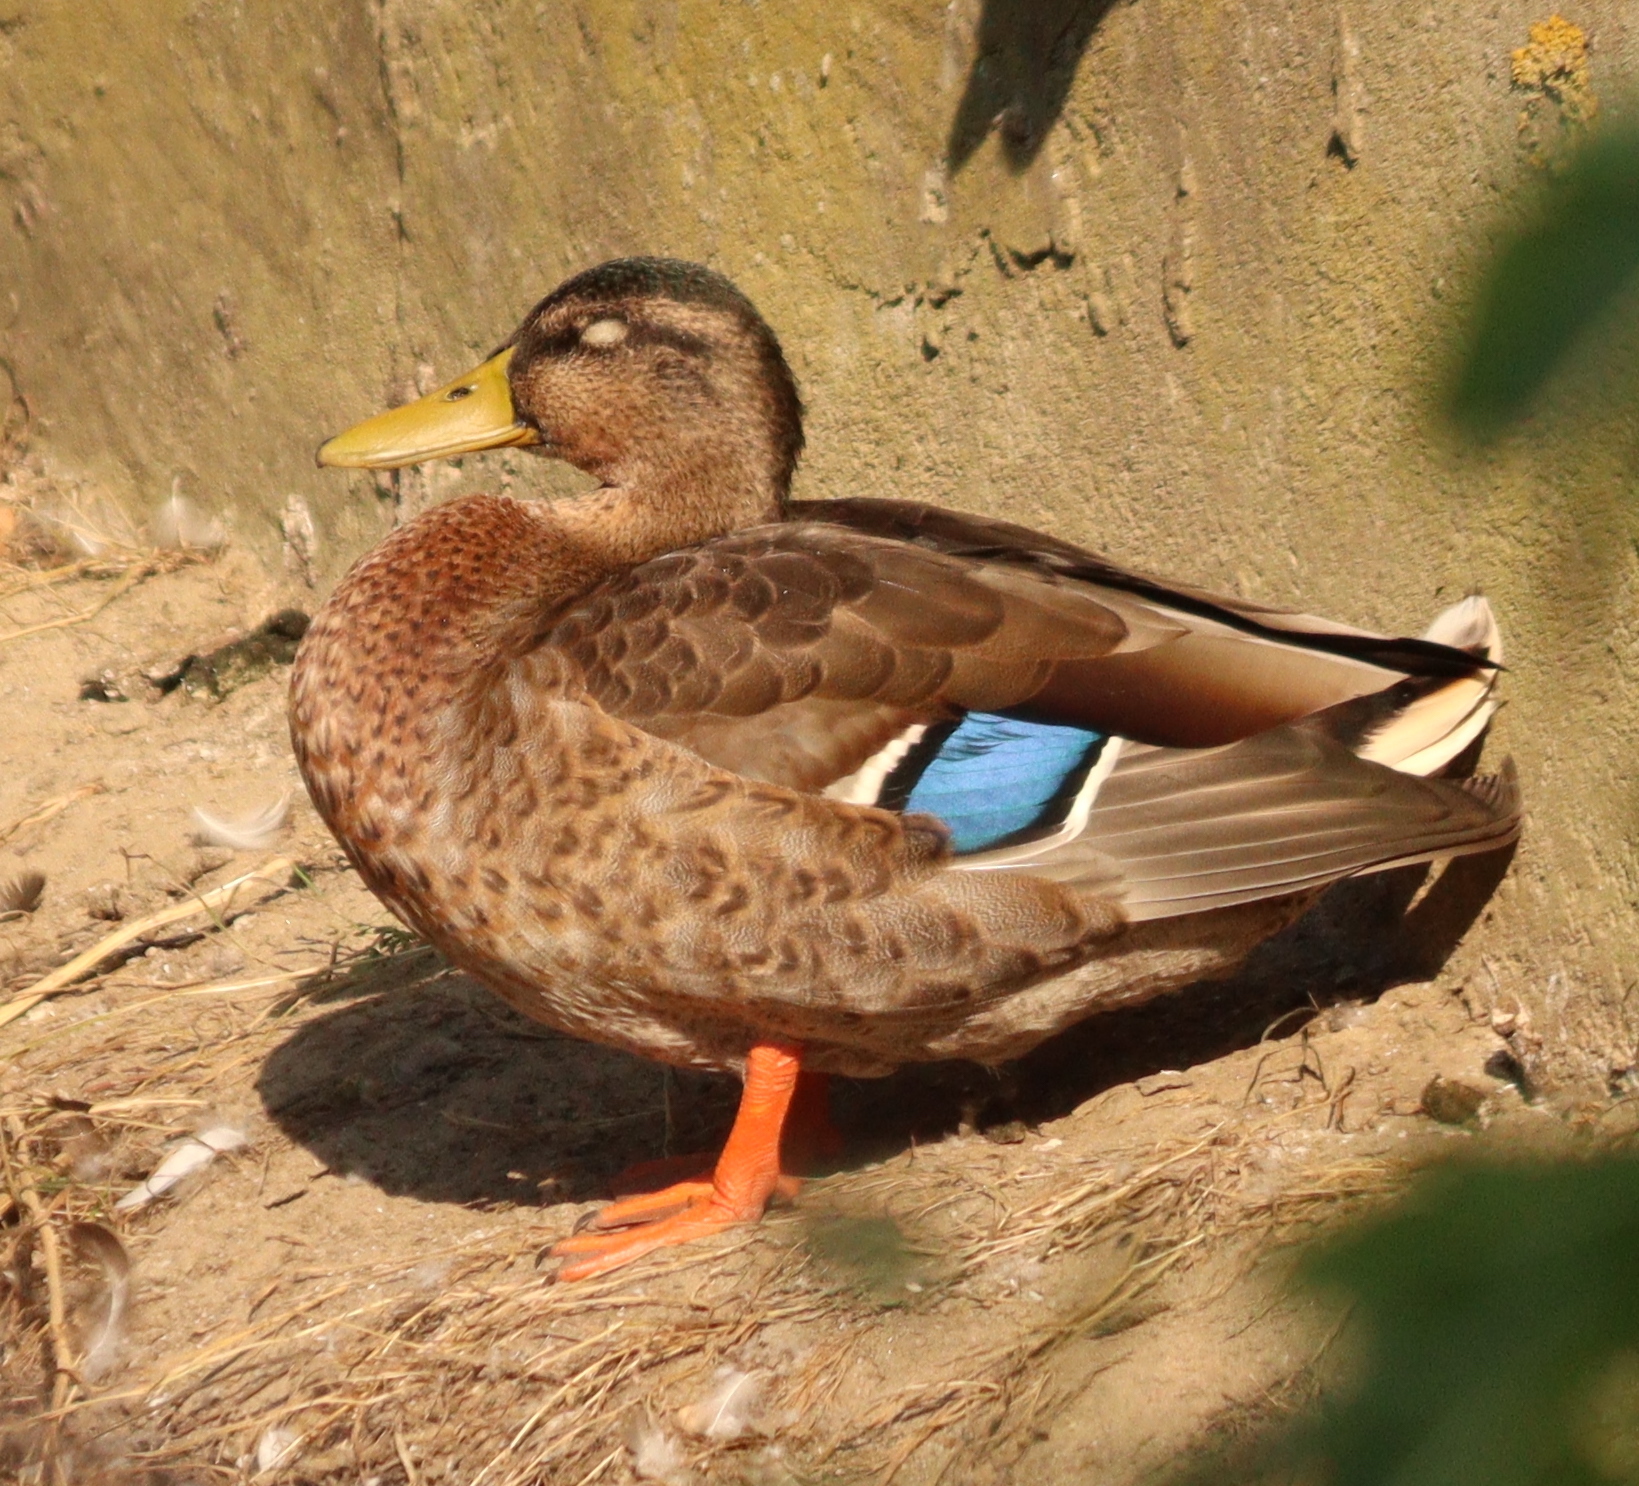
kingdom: Animalia
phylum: Chordata
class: Aves
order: Anseriformes
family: Anatidae
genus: Anas
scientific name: Anas platyrhynchos
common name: Mallard
